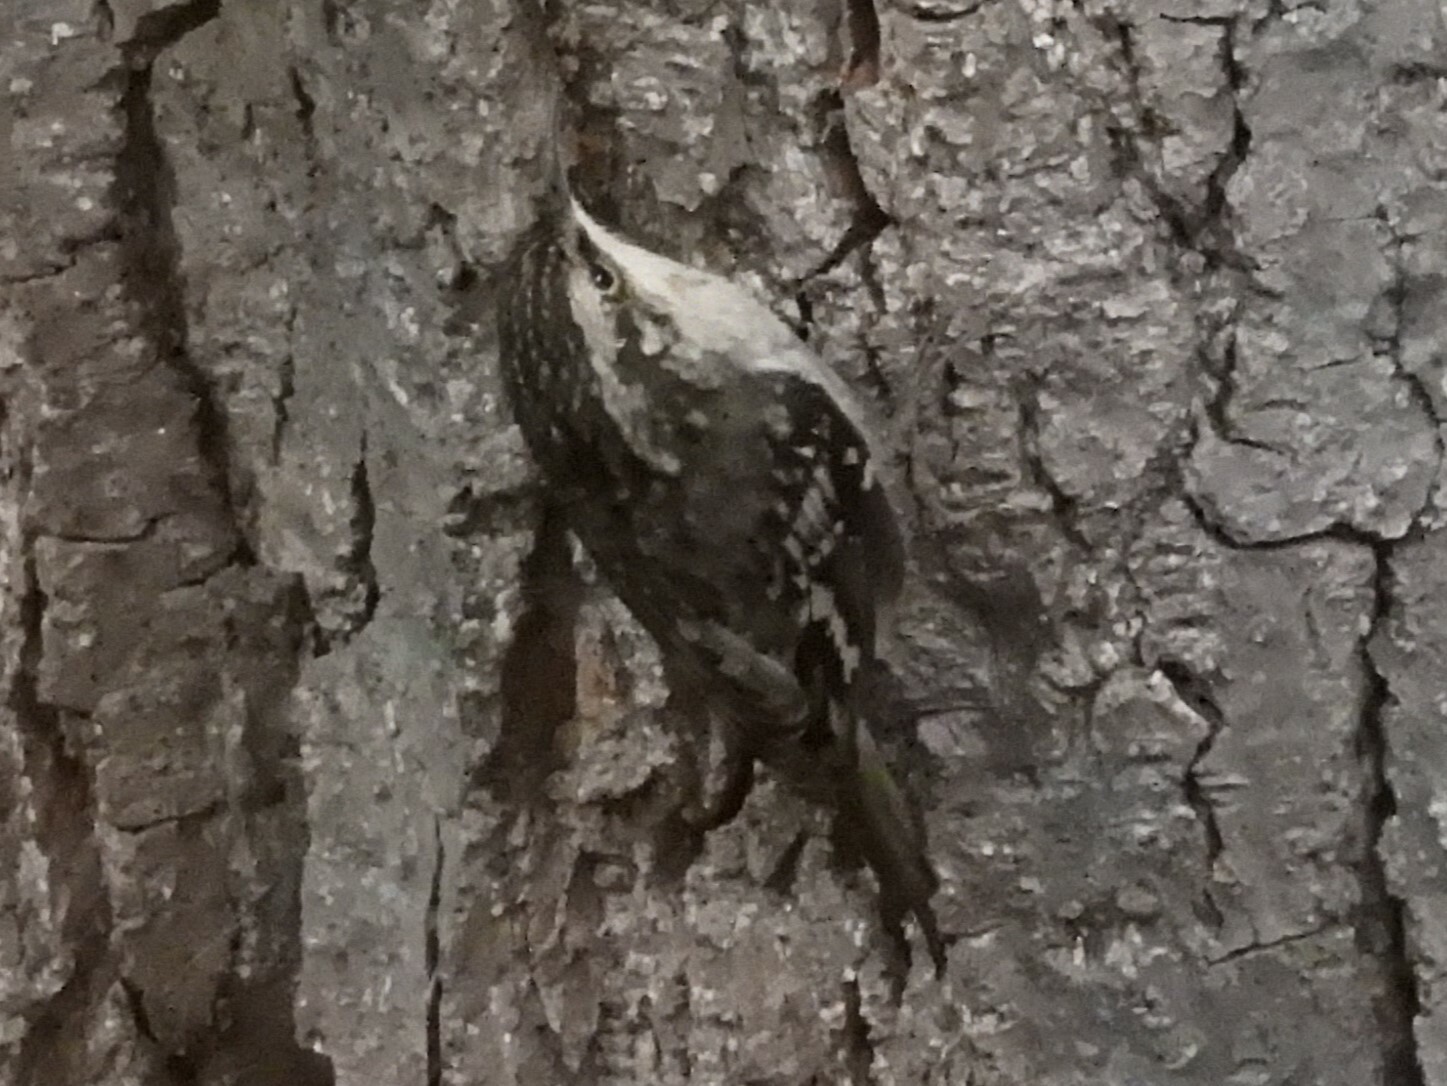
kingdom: Animalia
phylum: Chordata
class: Aves
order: Passeriformes
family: Certhiidae
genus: Certhia
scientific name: Certhia americana
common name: Brown creeper
